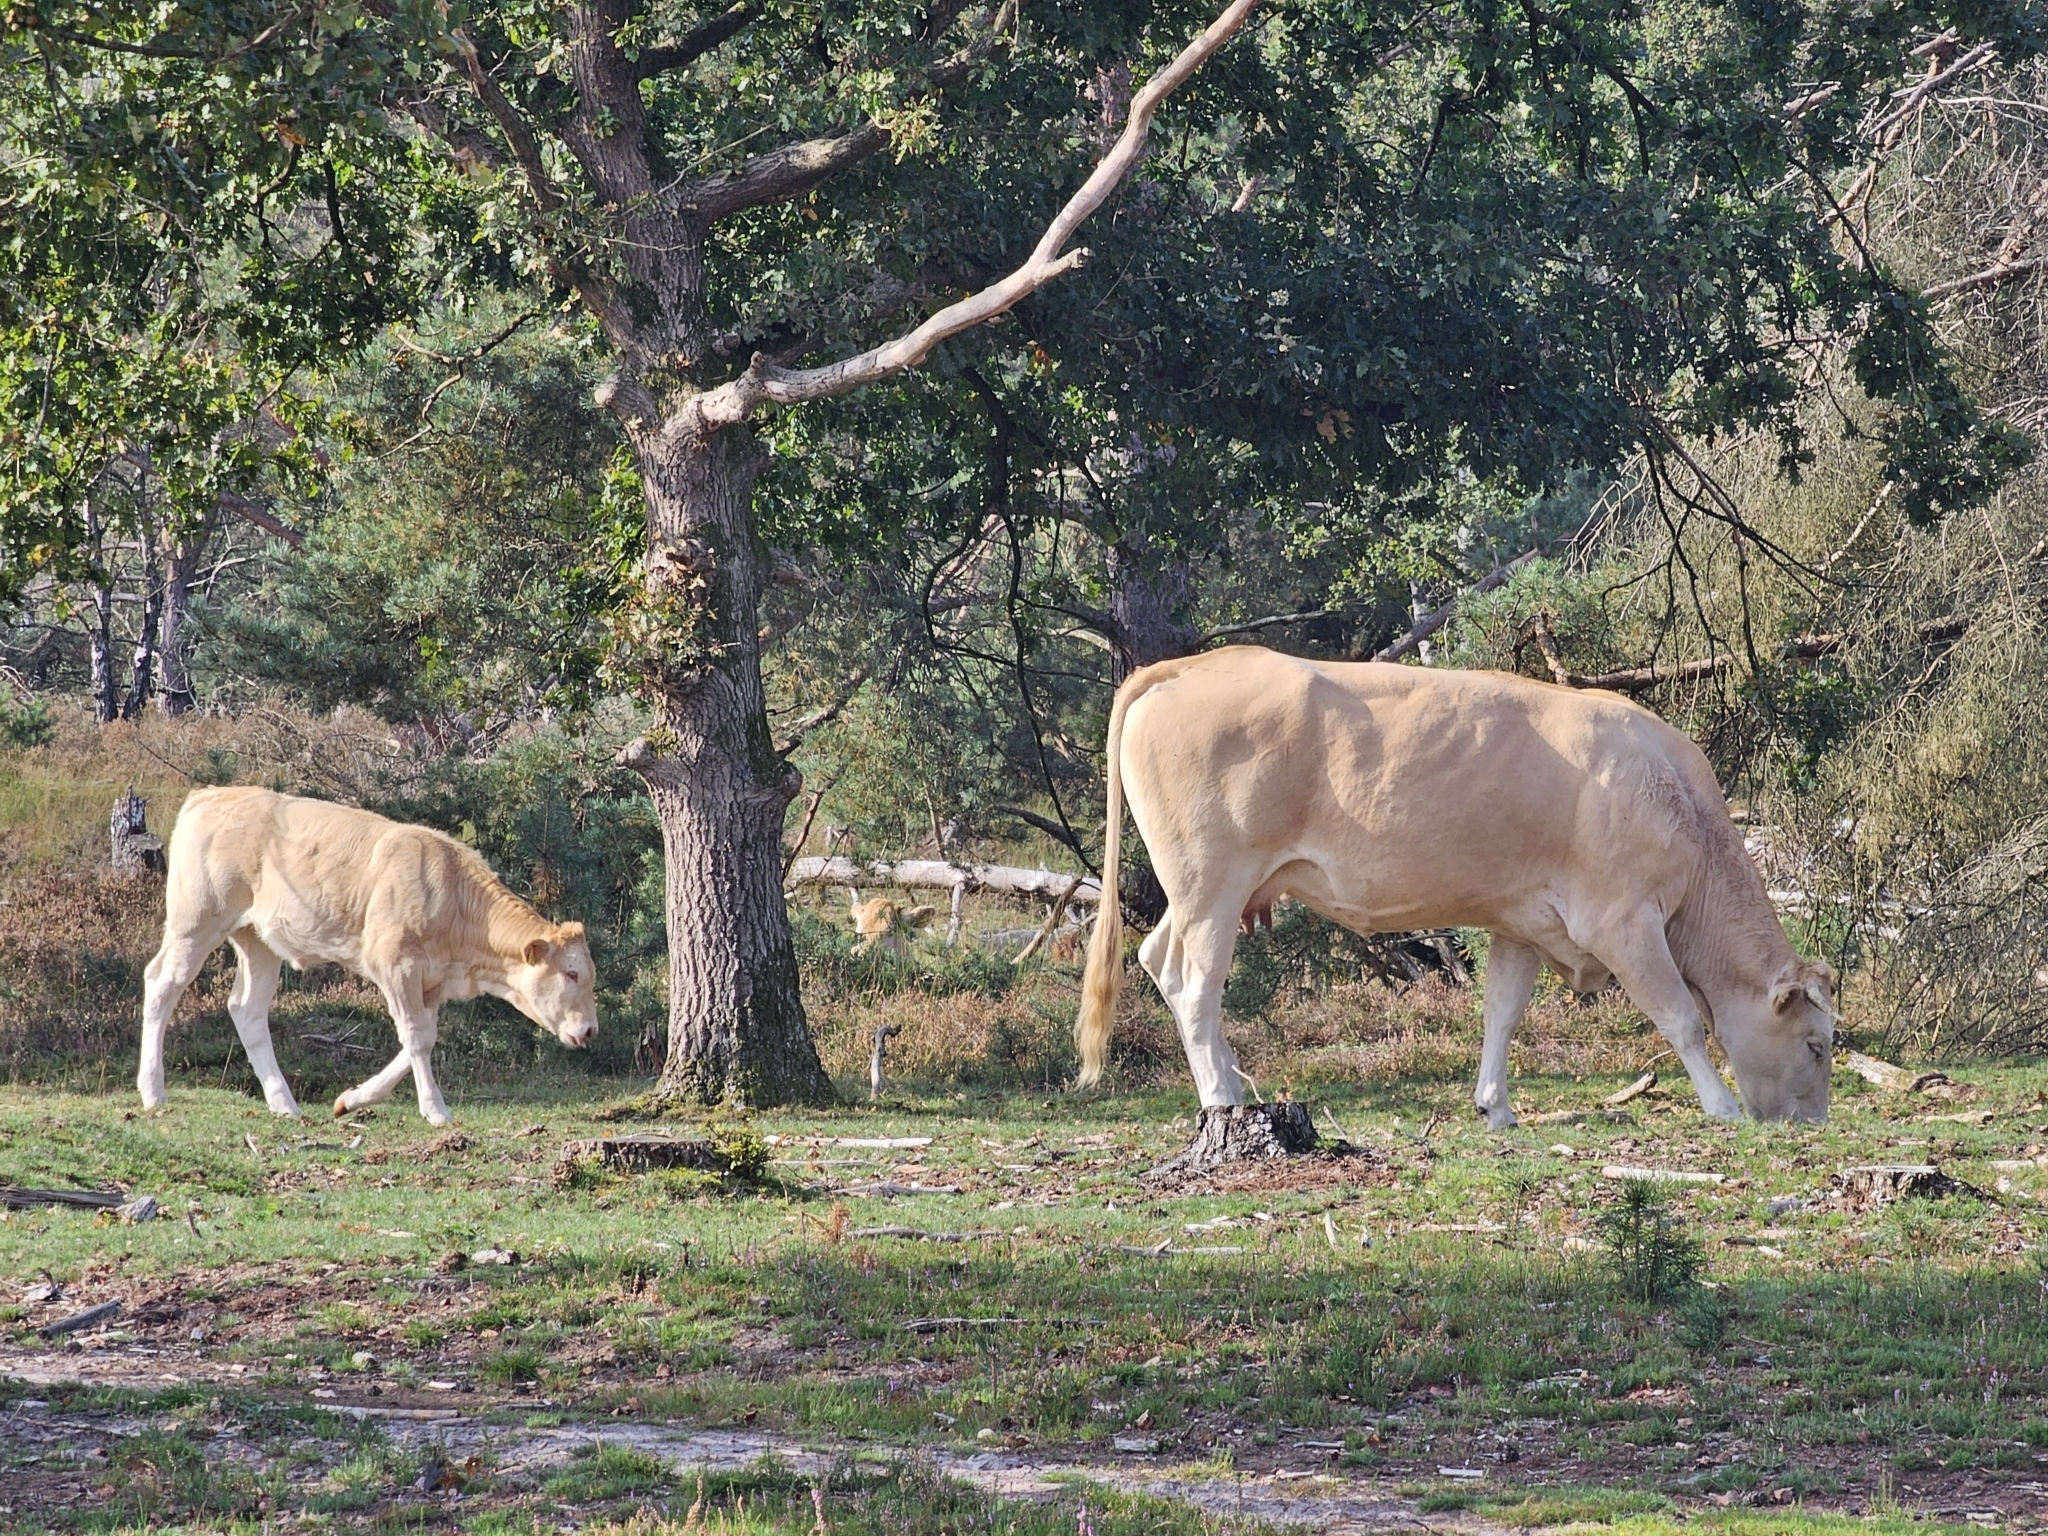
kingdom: Animalia
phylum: Chordata
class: Mammalia
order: Artiodactyla
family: Bovidae
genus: Bos
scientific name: Bos taurus
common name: Domesticated cattle
